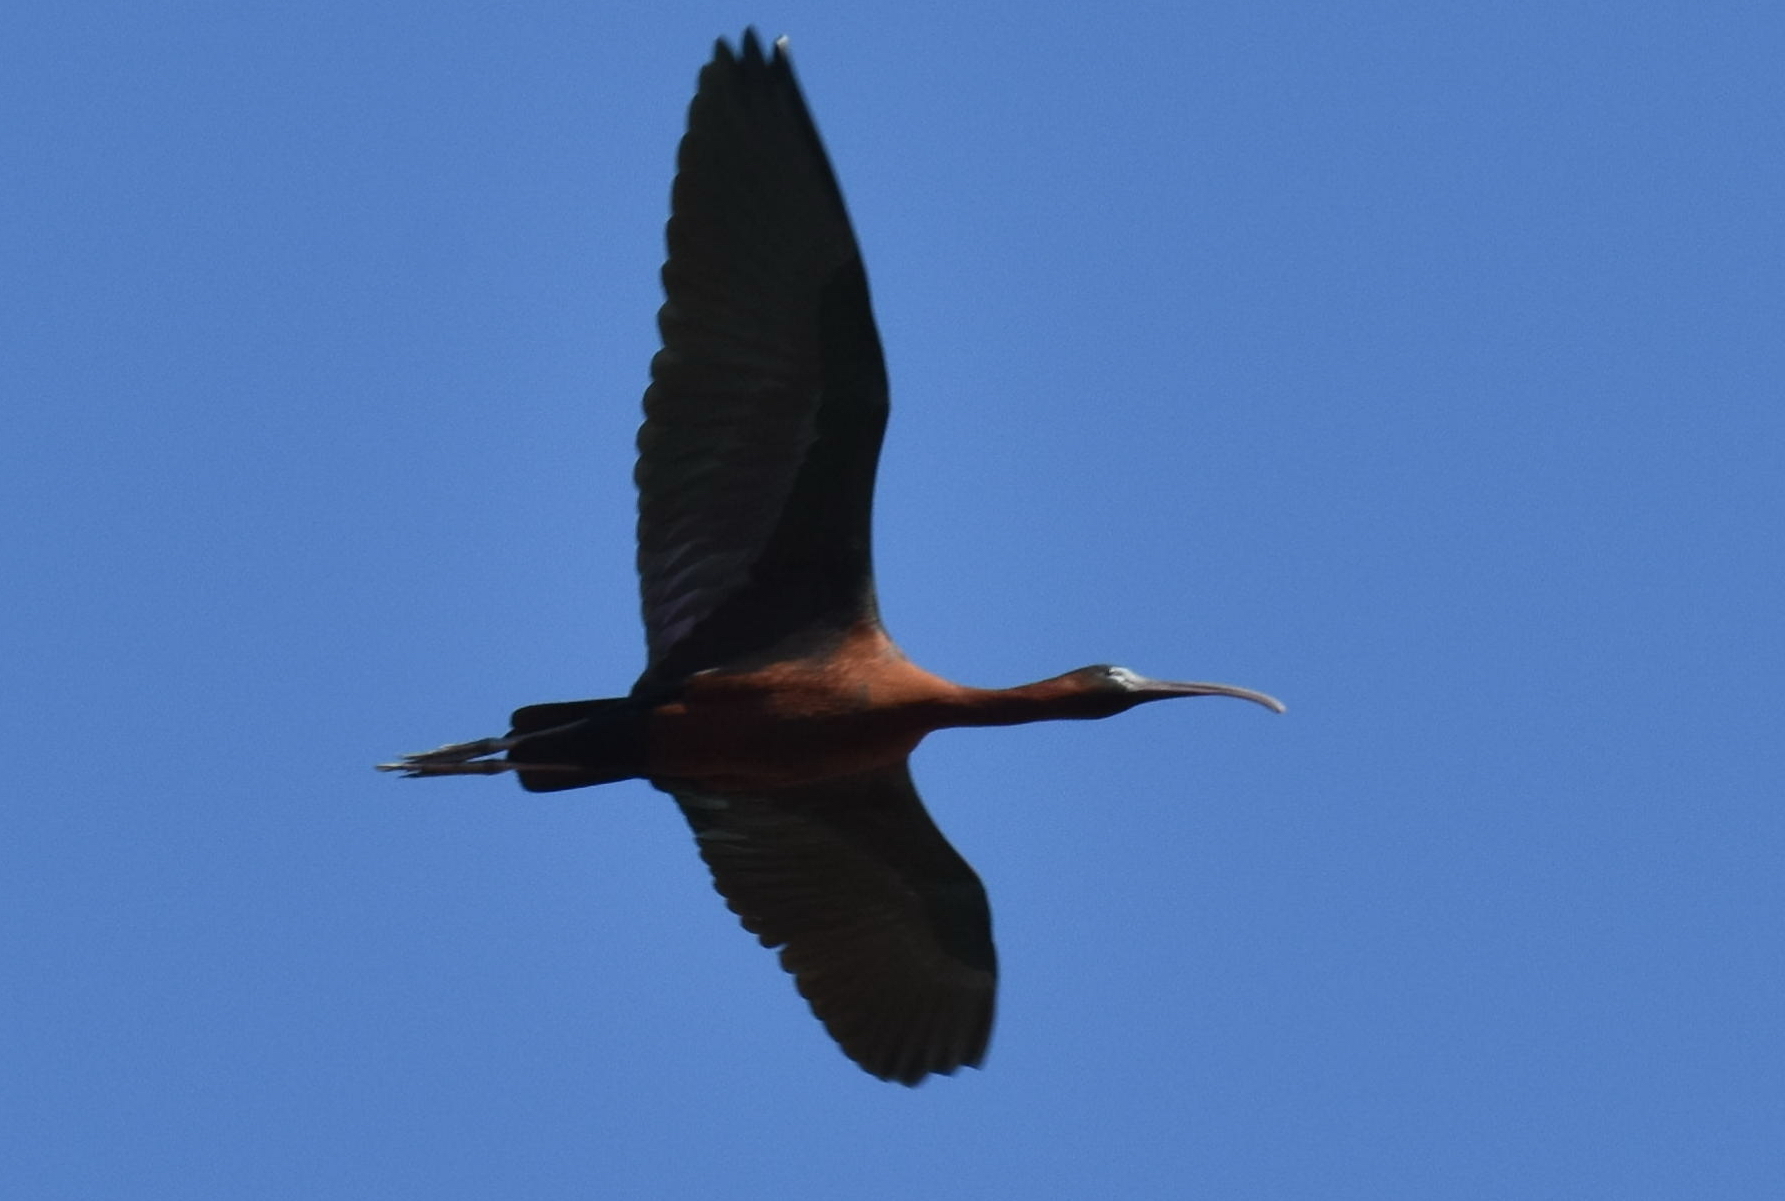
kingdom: Animalia
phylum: Chordata
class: Aves
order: Pelecaniformes
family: Threskiornithidae
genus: Plegadis
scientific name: Plegadis falcinellus
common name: Glossy ibis
